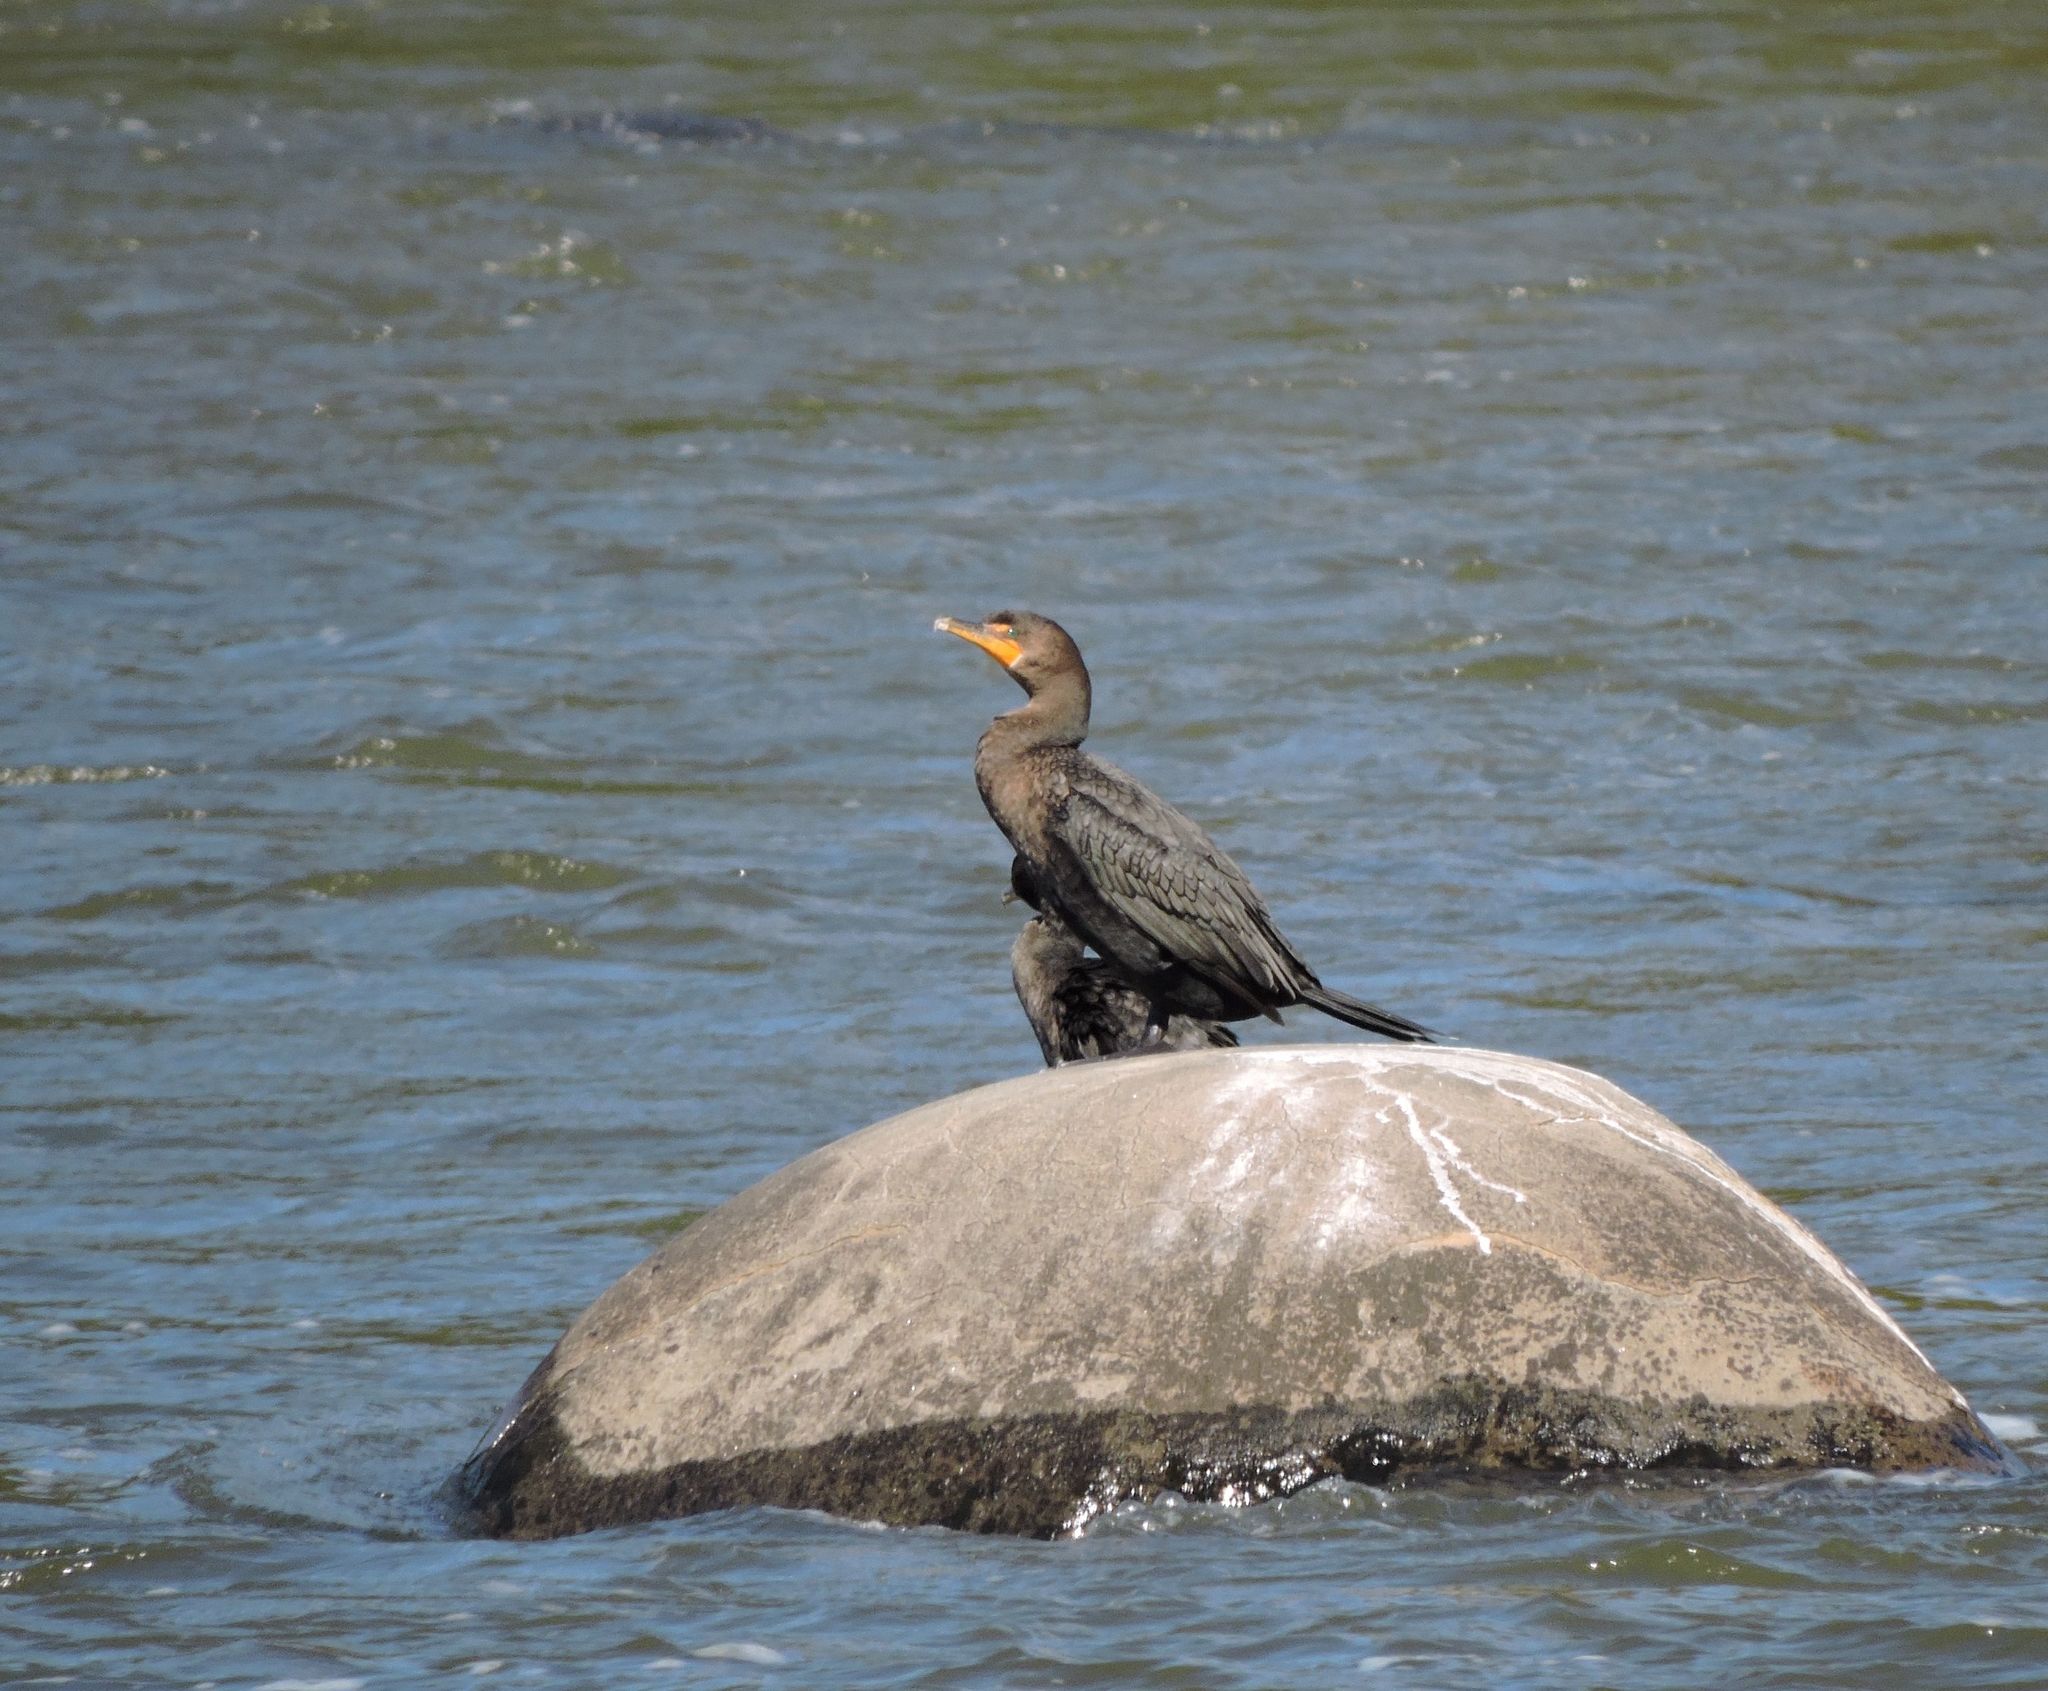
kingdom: Animalia
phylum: Chordata
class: Aves
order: Suliformes
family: Phalacrocoracidae
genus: Phalacrocorax
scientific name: Phalacrocorax auritus
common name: Double-crested cormorant
